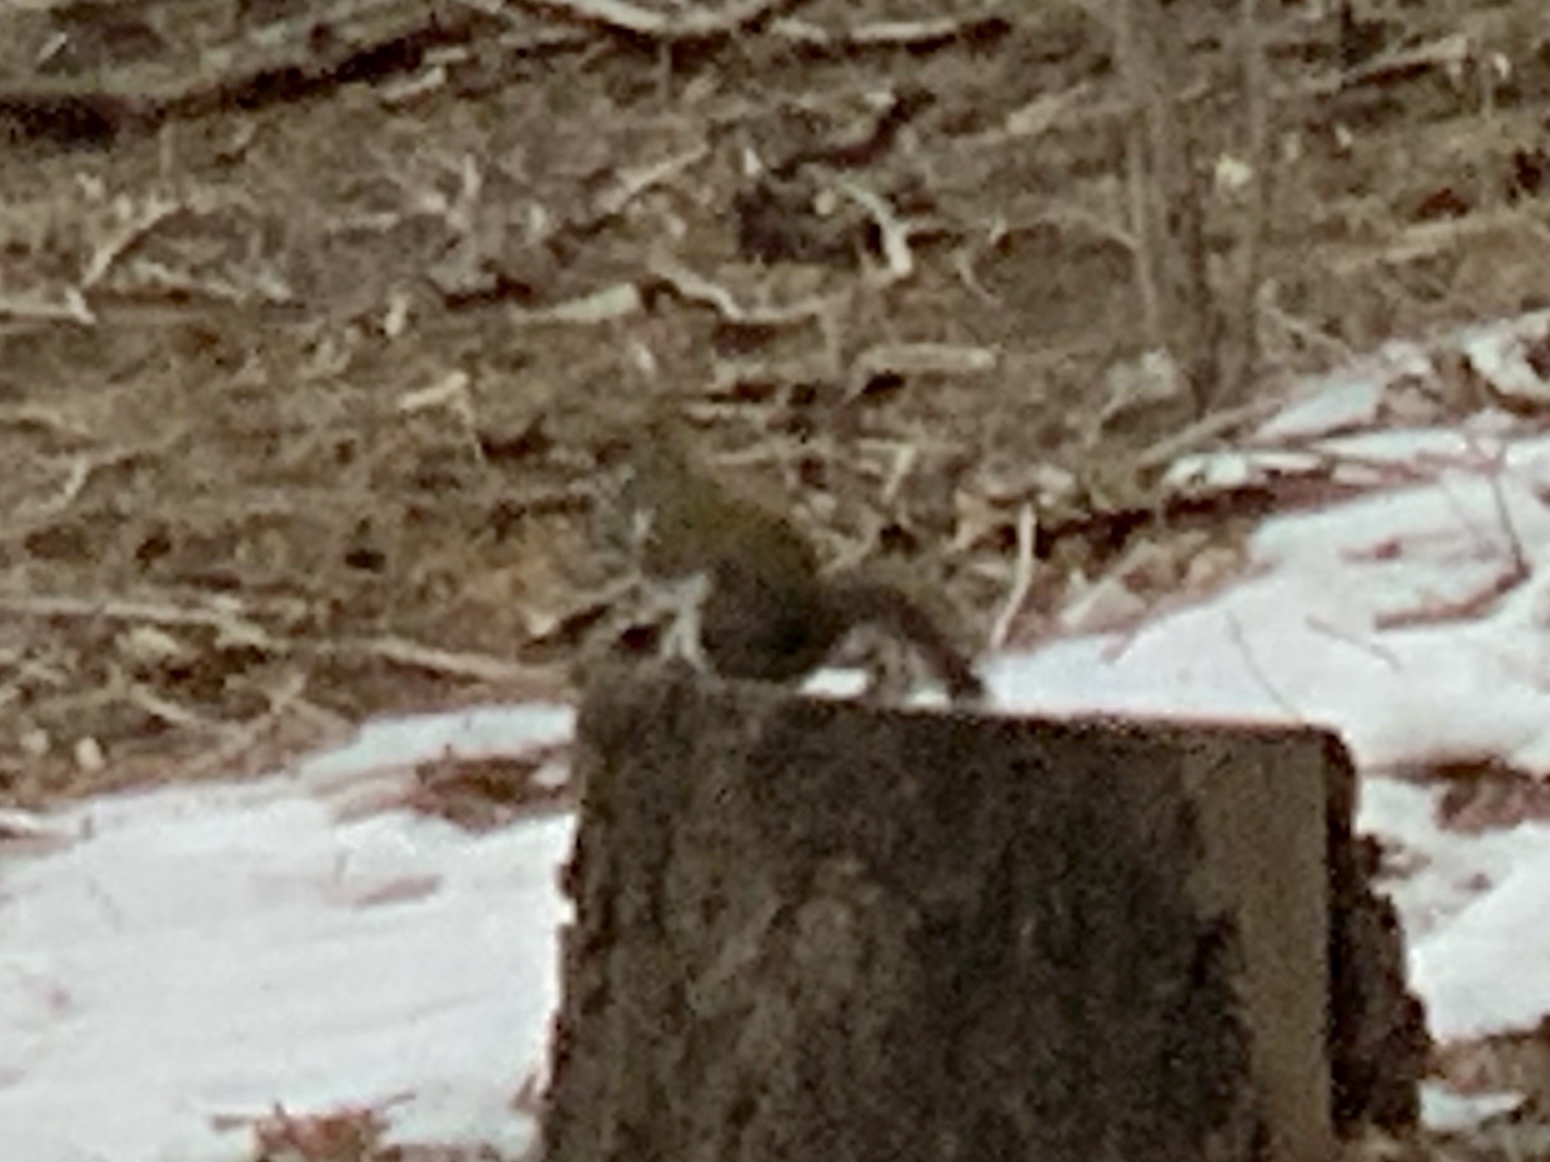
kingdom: Animalia
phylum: Chordata
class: Mammalia
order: Rodentia
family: Sciuridae
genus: Tamiasciurus
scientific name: Tamiasciurus hudsonicus
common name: Red squirrel
